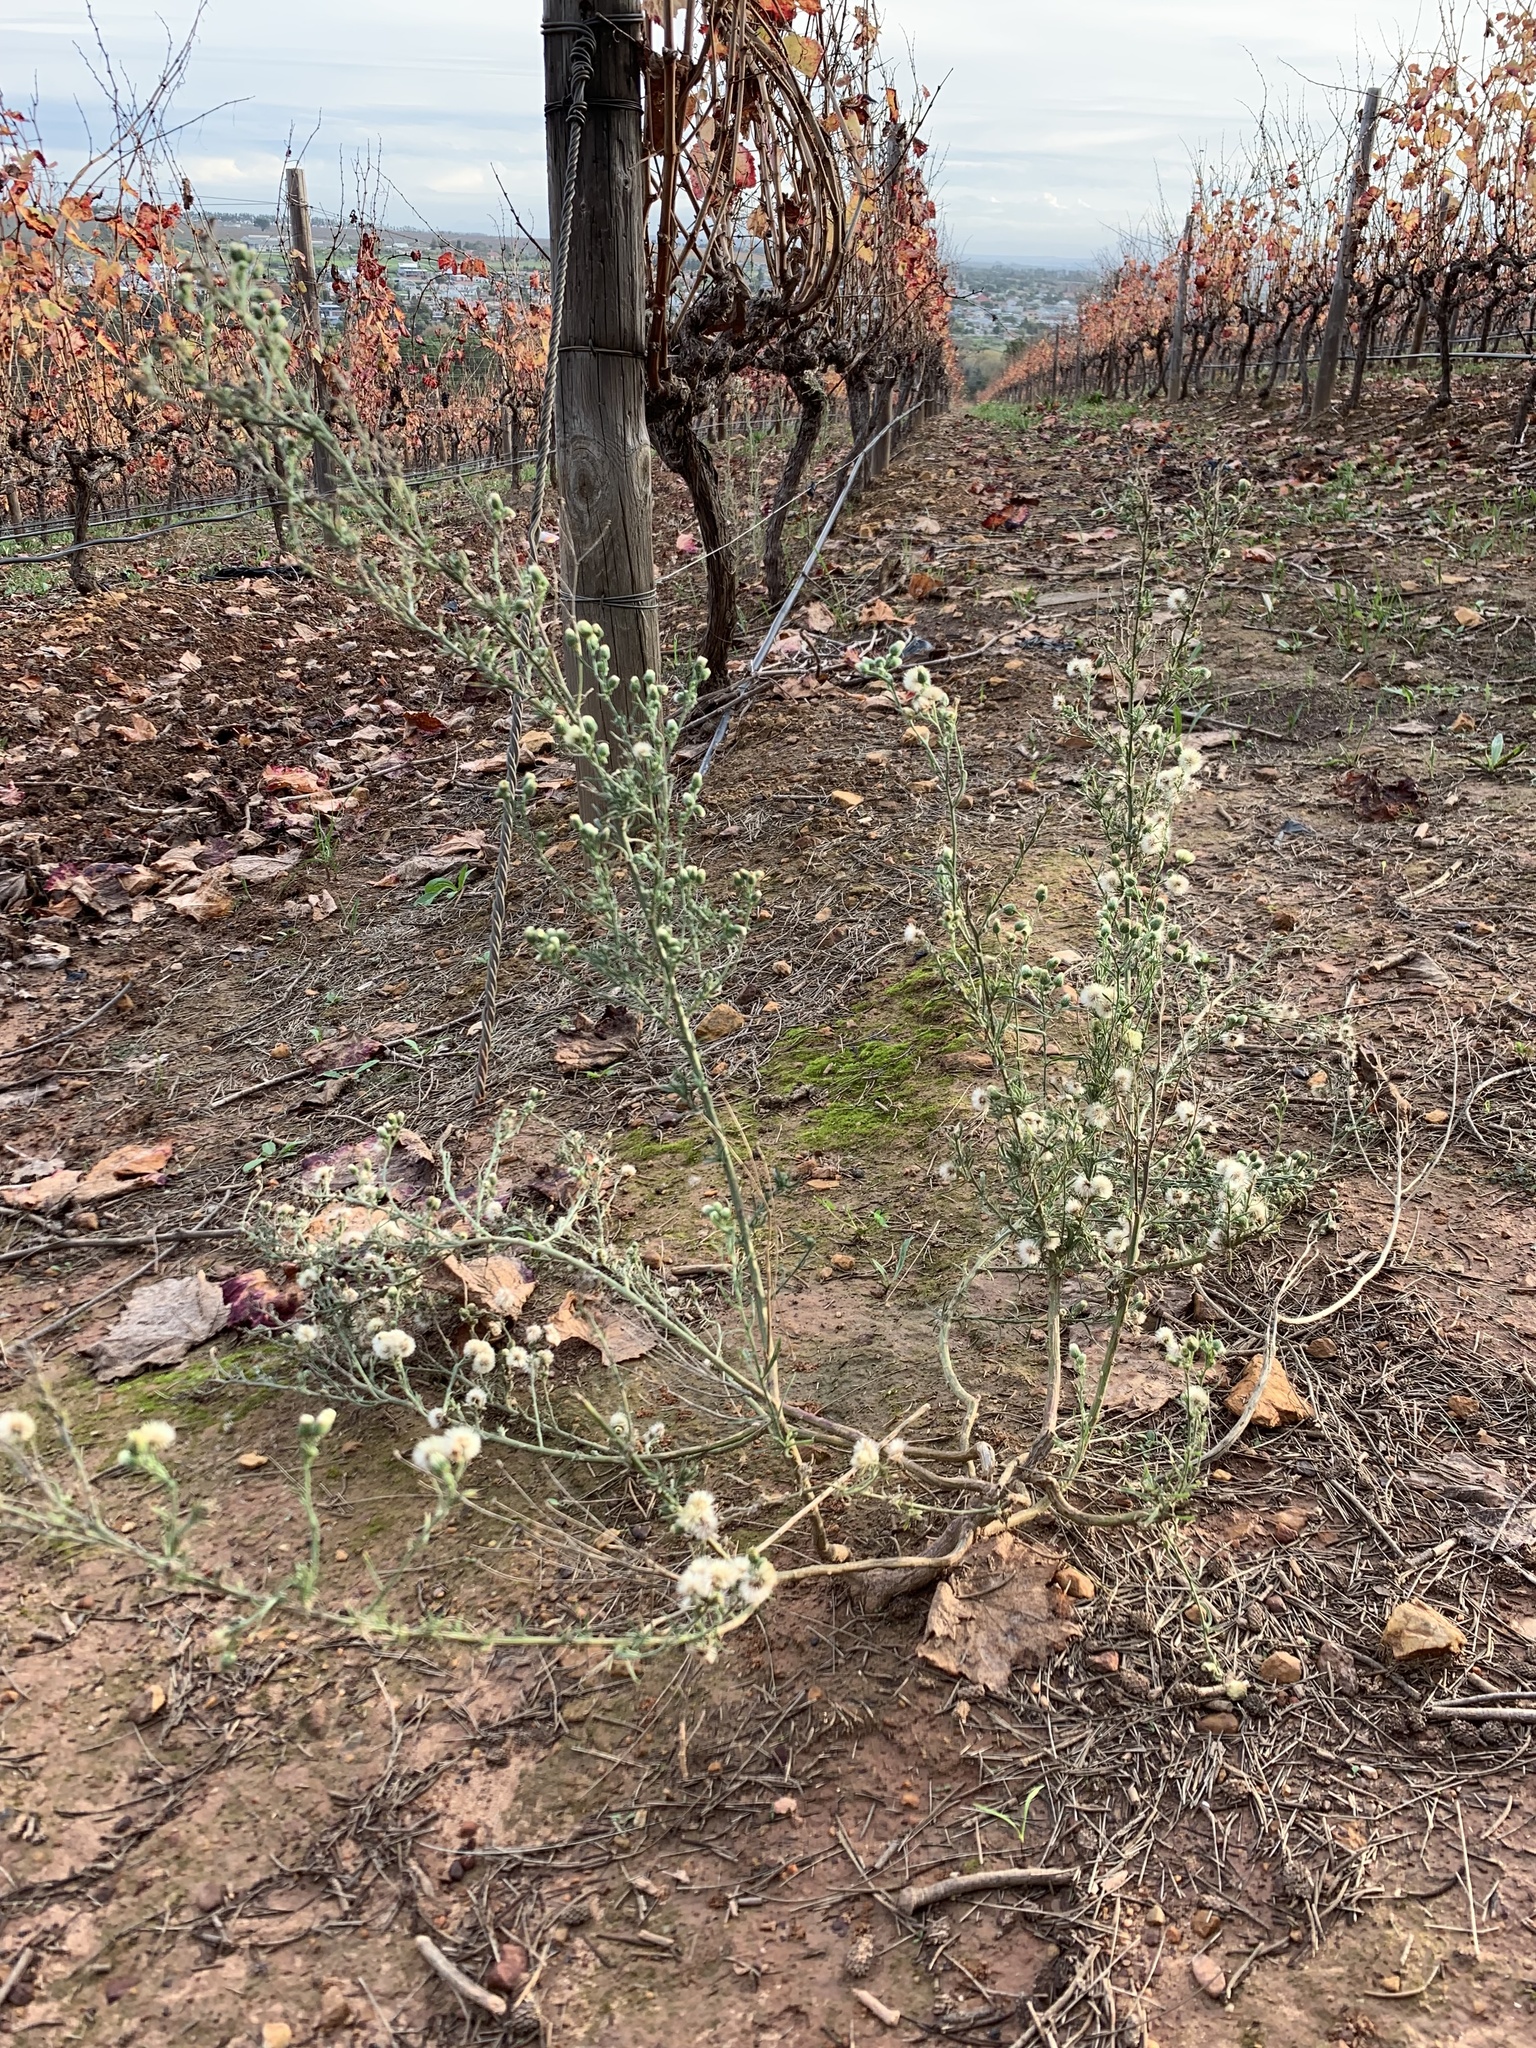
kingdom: Plantae
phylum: Tracheophyta
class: Magnoliopsida
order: Asterales
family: Asteraceae
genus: Erigeron
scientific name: Erigeron bonariensis
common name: Argentine fleabane
